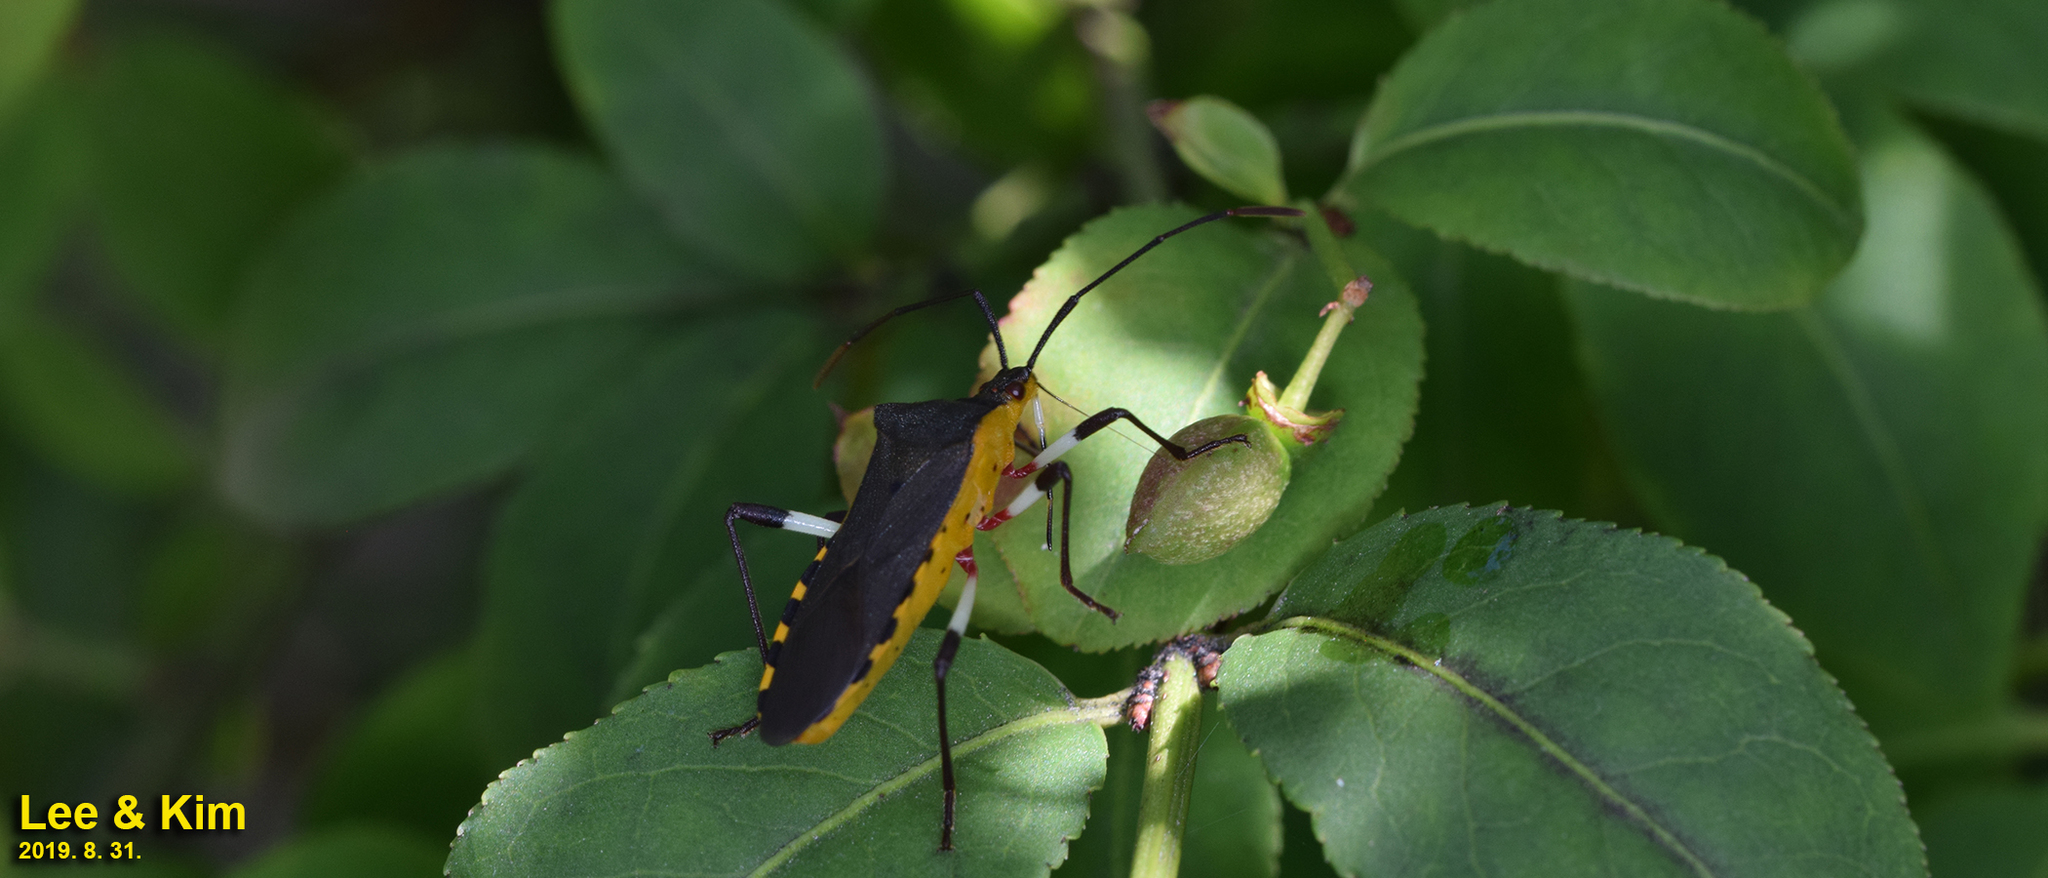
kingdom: Animalia
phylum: Arthropoda
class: Insecta
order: Hemiptera
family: Coreidae
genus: Plinachtus
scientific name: Plinachtus bicoloripes
